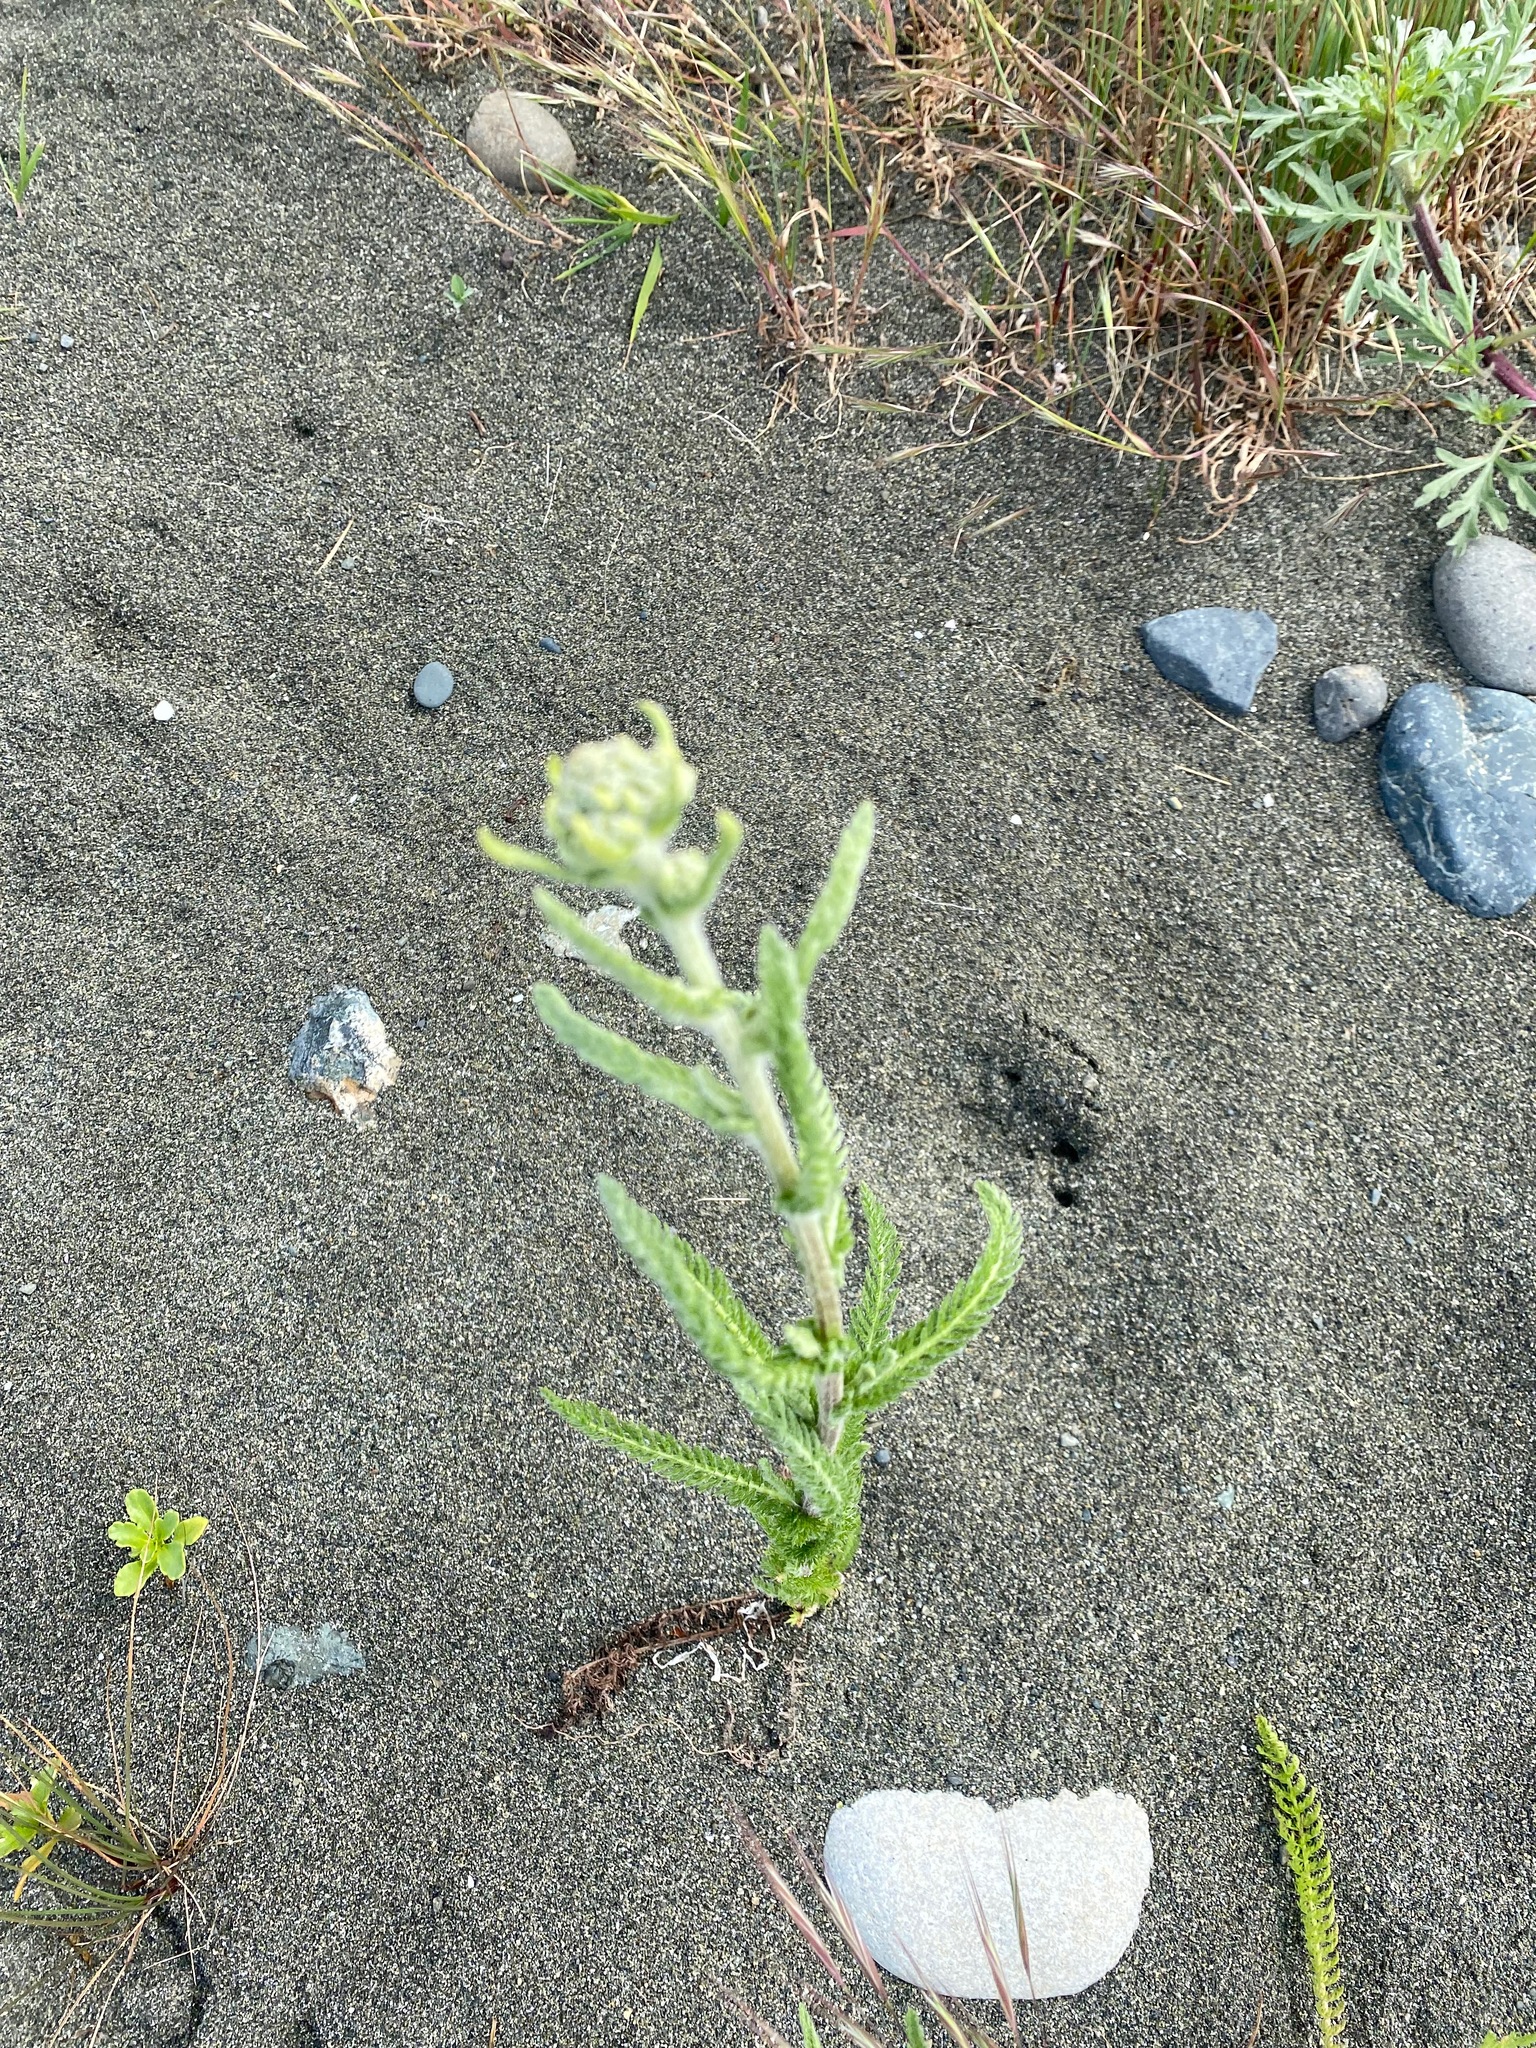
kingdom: Plantae
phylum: Tracheophyta
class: Magnoliopsida
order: Asterales
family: Asteraceae
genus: Achillea
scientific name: Achillea millefolium
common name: Yarrow
